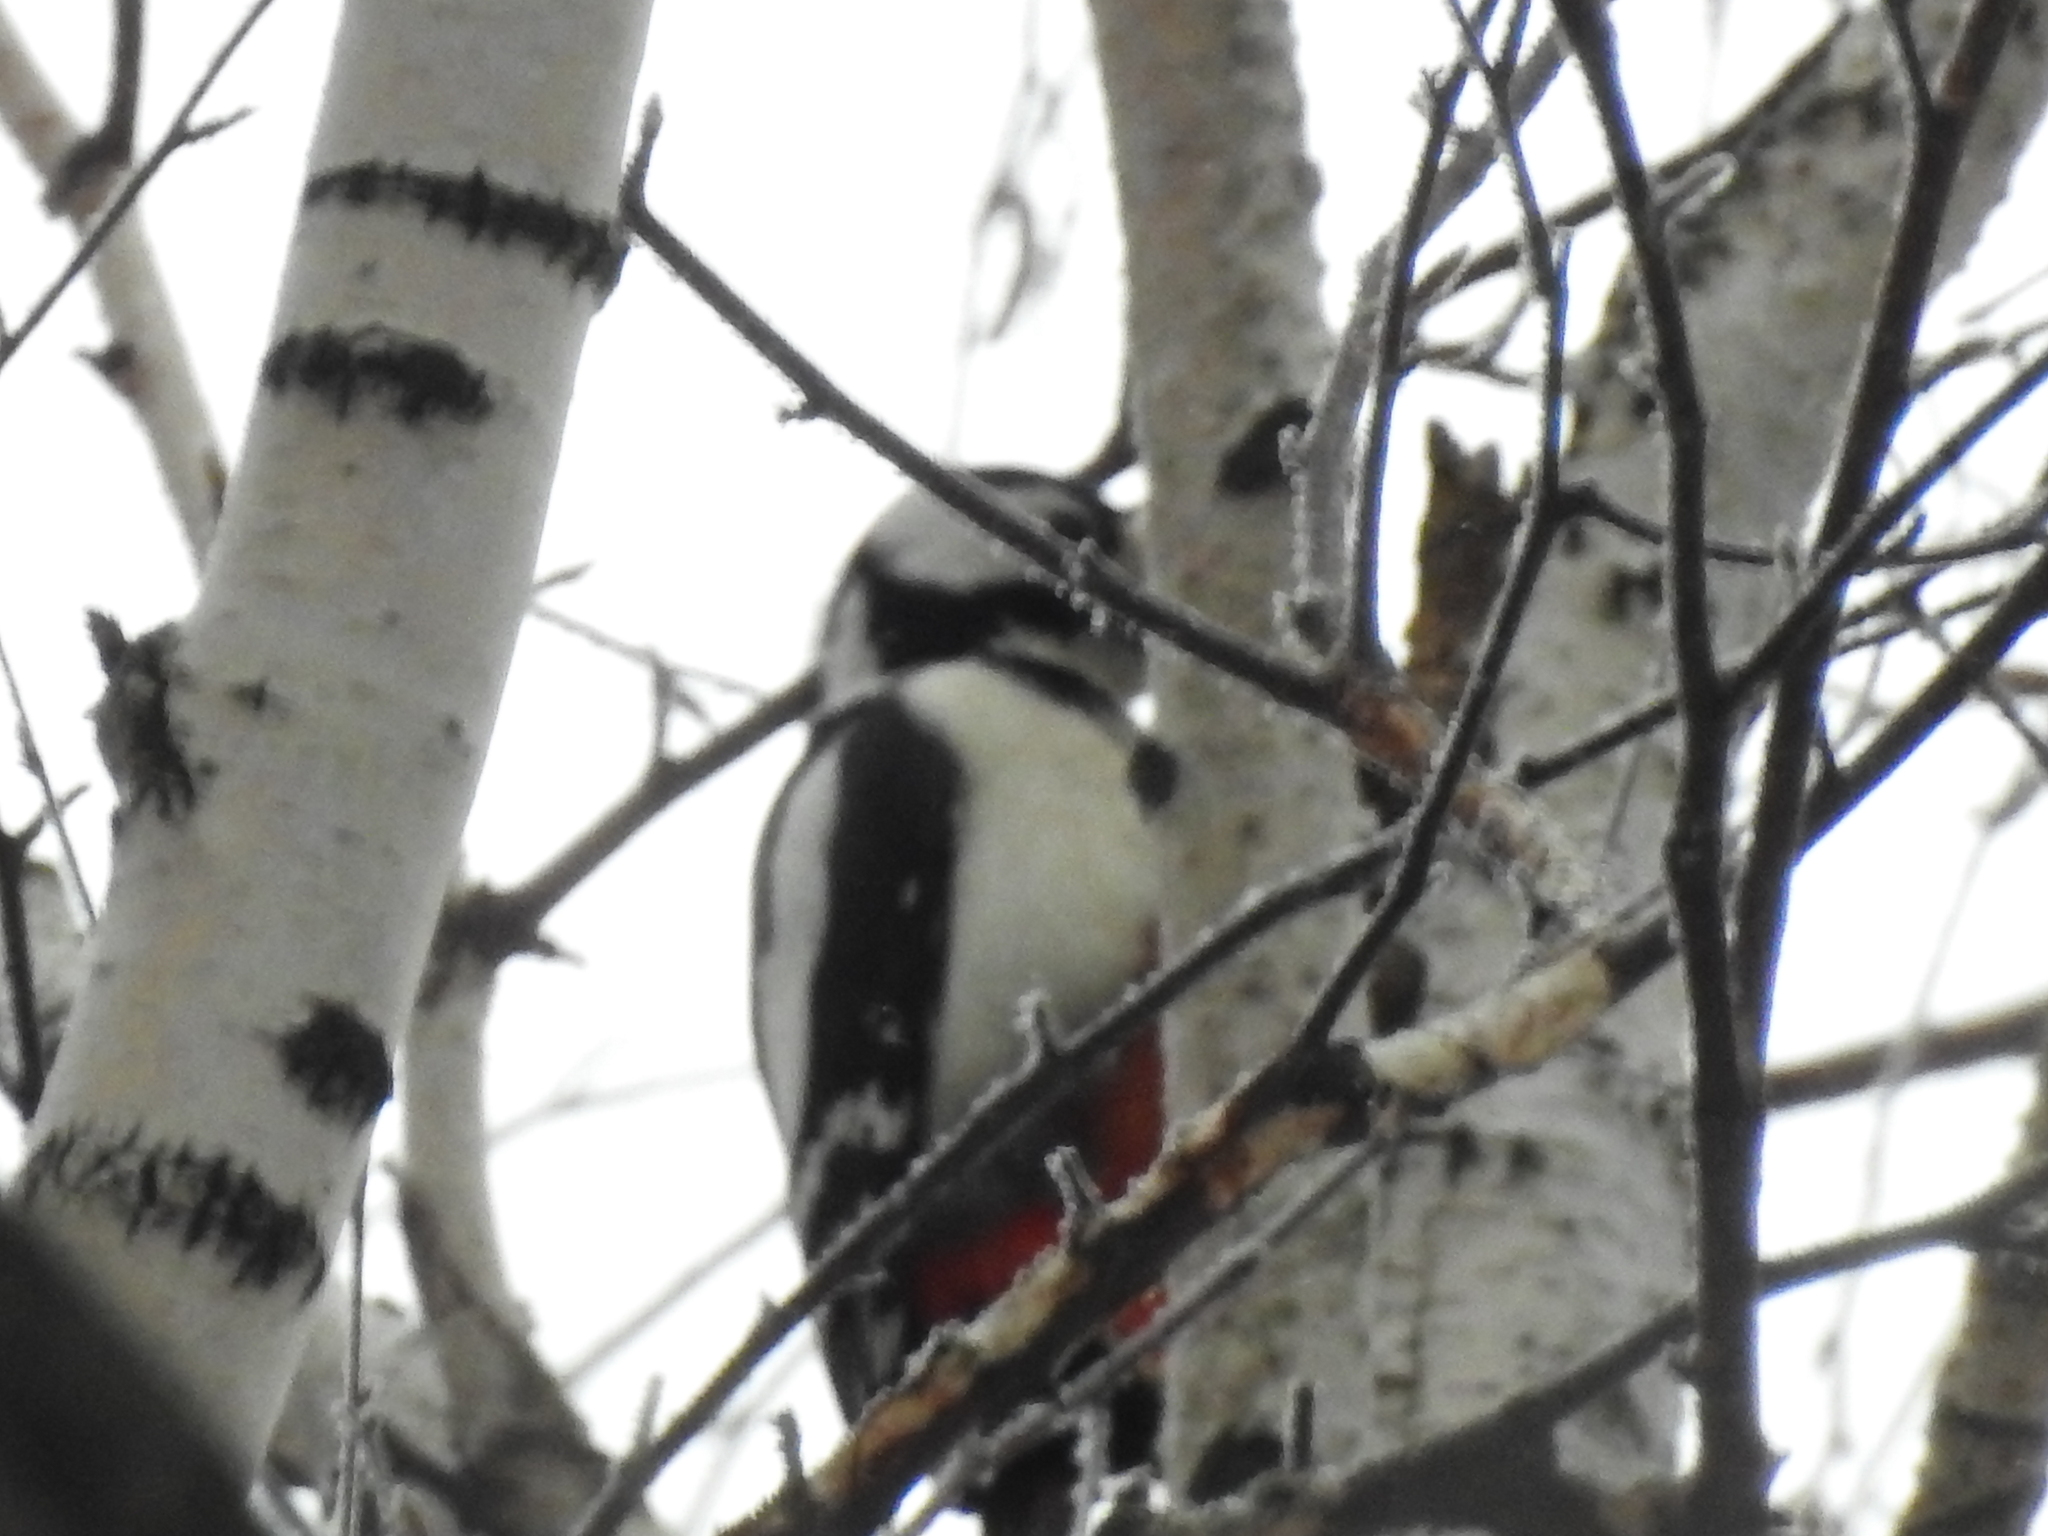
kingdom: Animalia
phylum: Chordata
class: Aves
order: Piciformes
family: Picidae
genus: Dendrocopos
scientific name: Dendrocopos major
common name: Great spotted woodpecker
